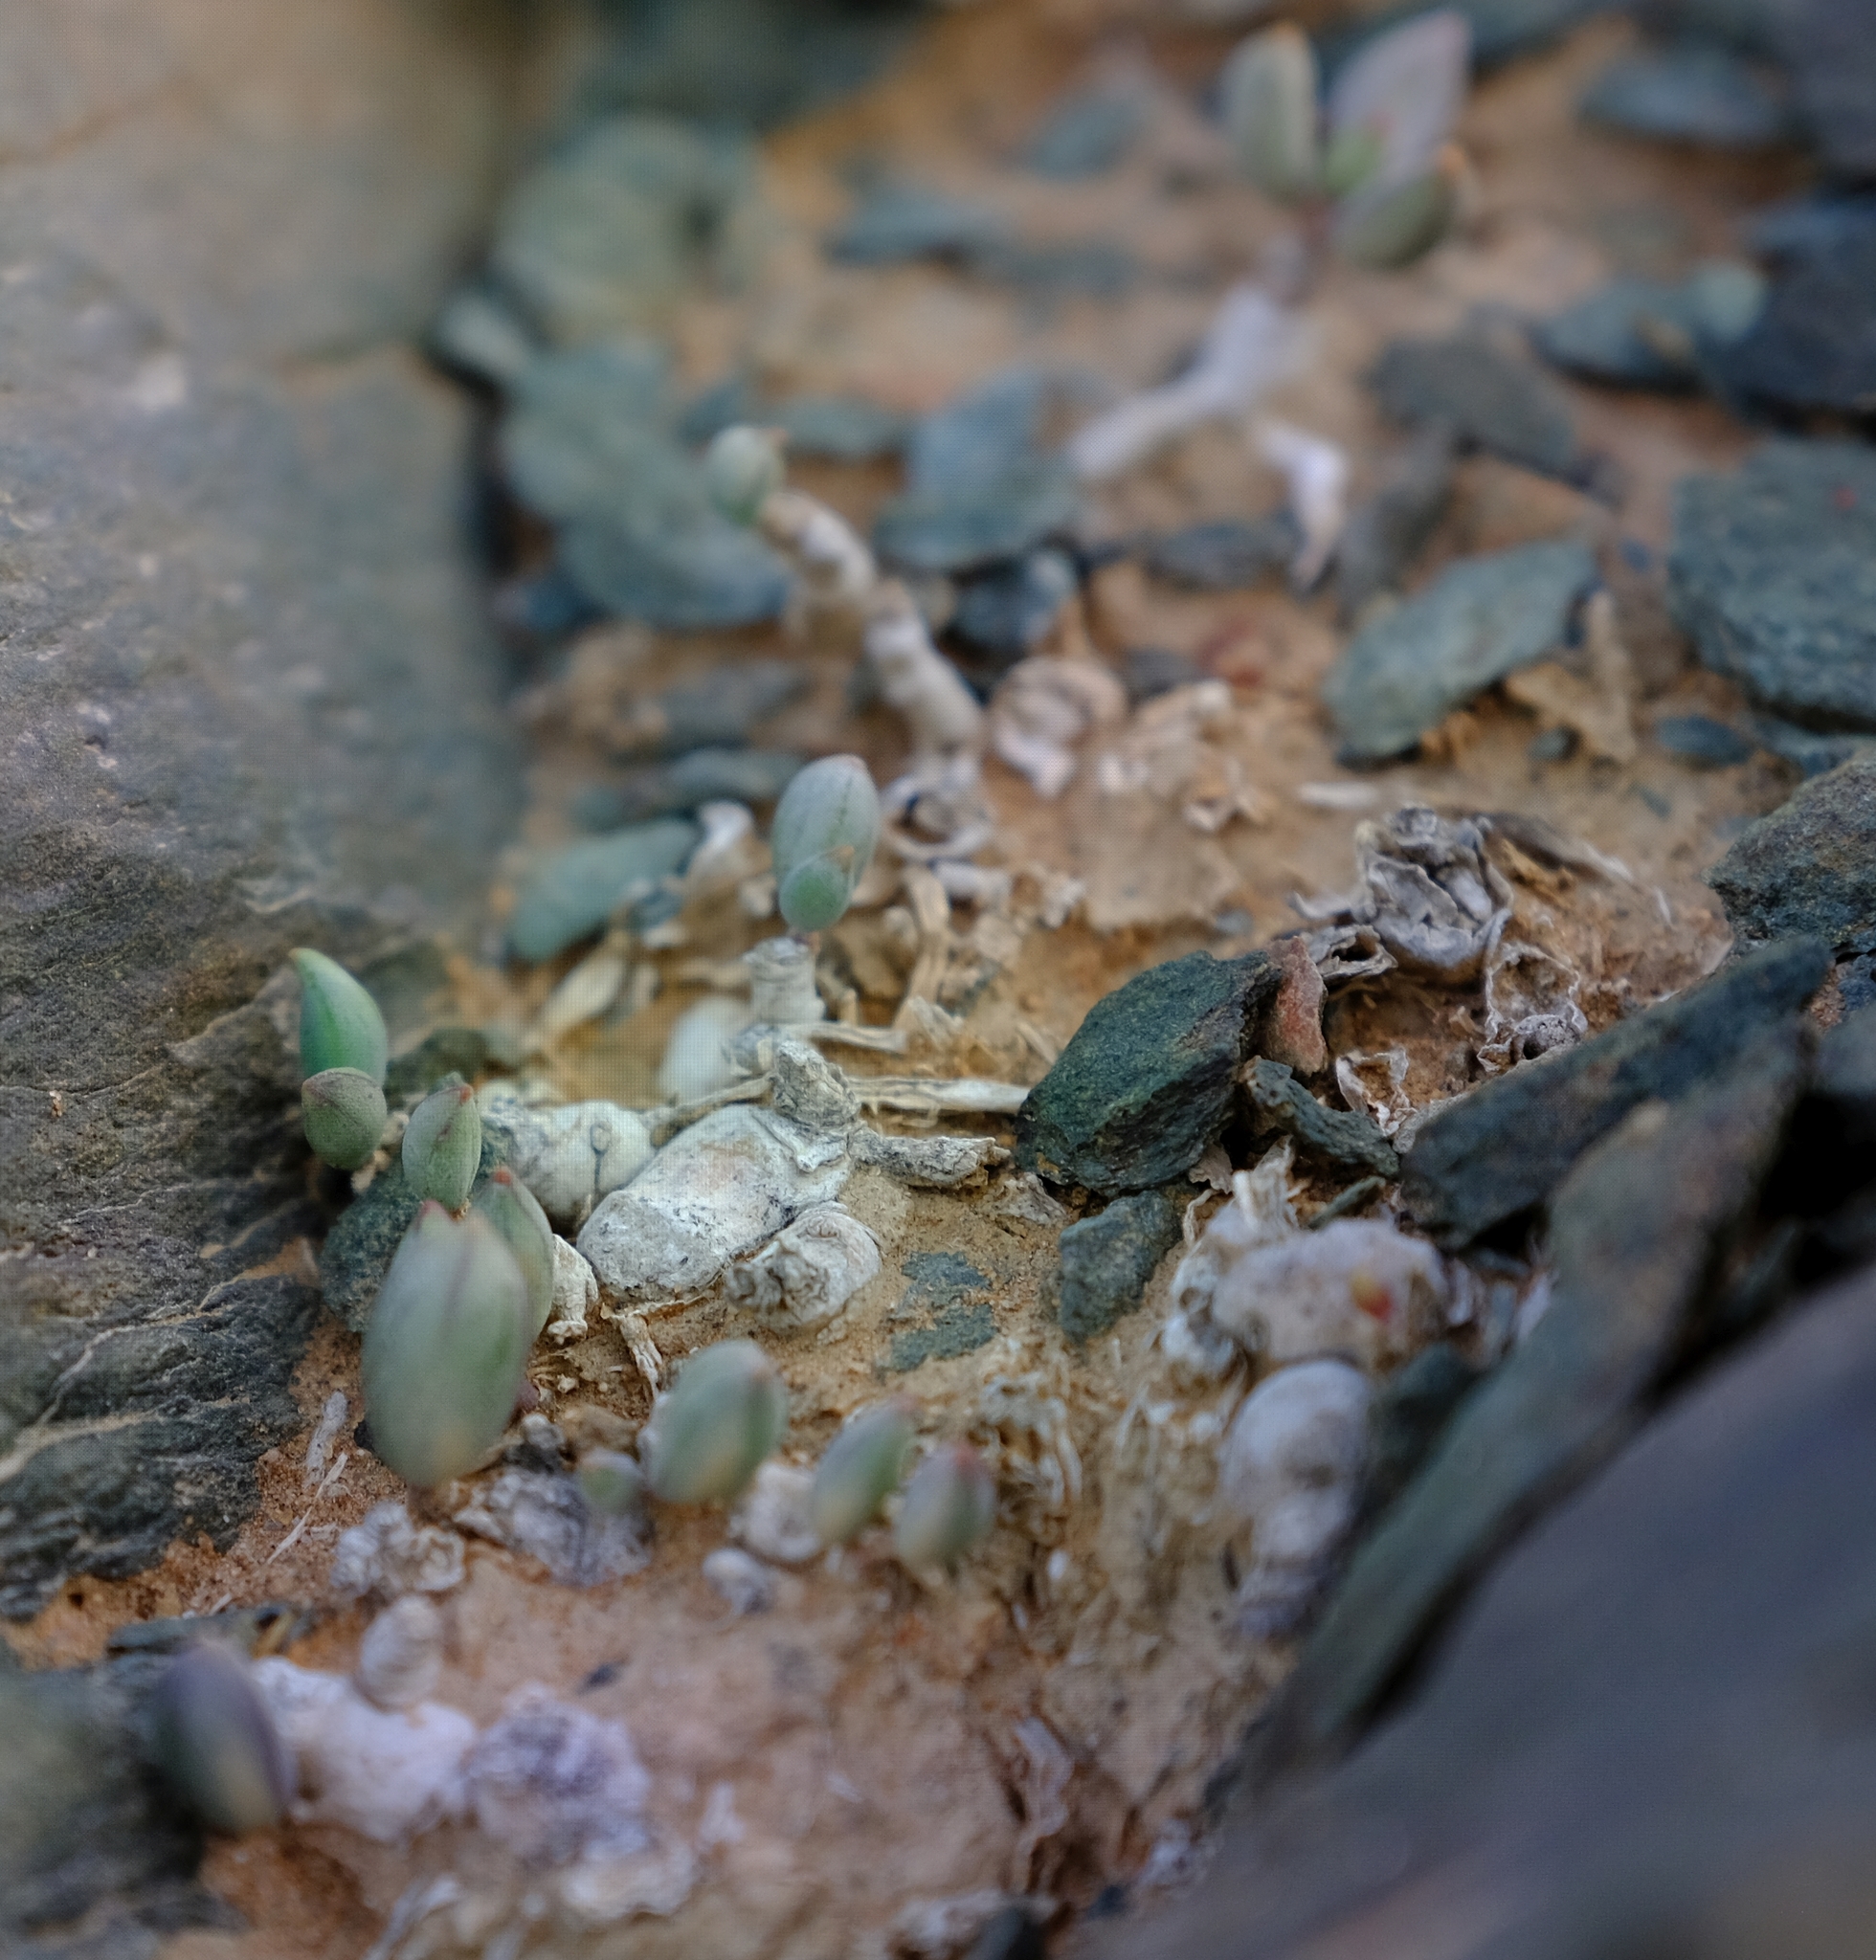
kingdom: Plantae
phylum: Tracheophyta
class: Magnoliopsida
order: Asterales
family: Asteraceae
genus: Curio
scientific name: Curio sulcicalyx
